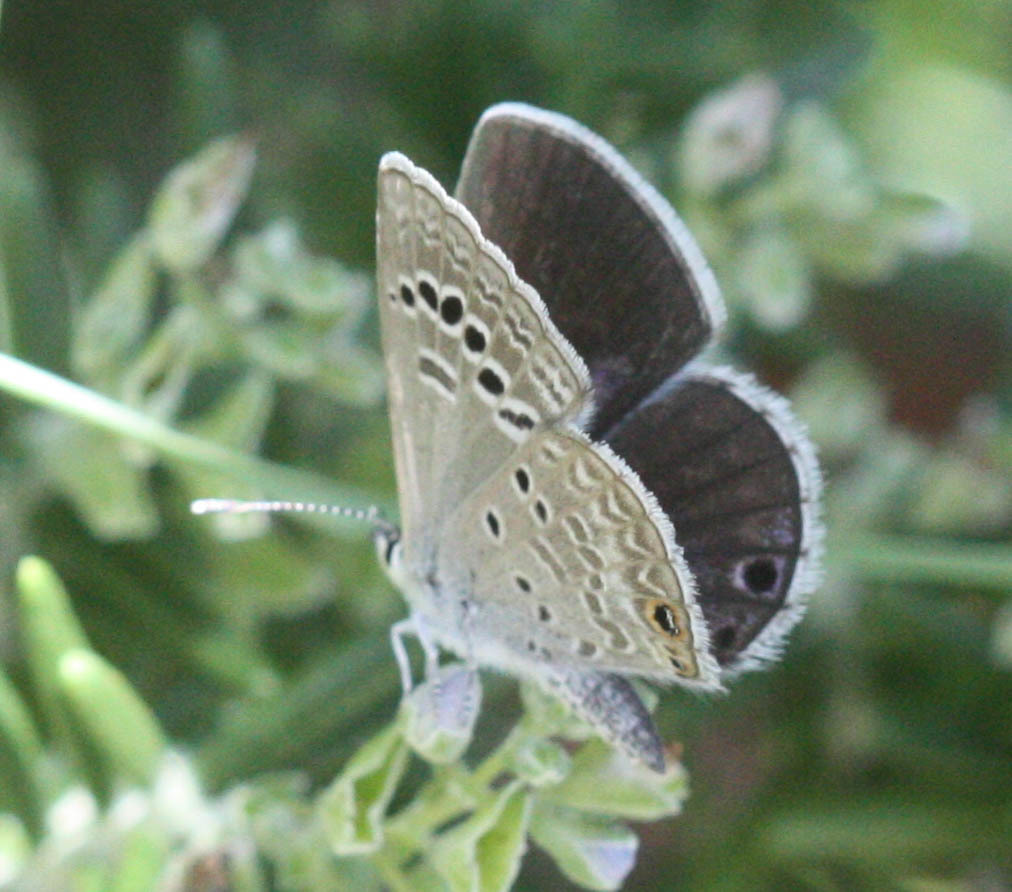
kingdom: Animalia
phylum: Arthropoda
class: Insecta
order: Lepidoptera
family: Lycaenidae
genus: Echinargus
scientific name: Echinargus isola
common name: Reakirt's blue
